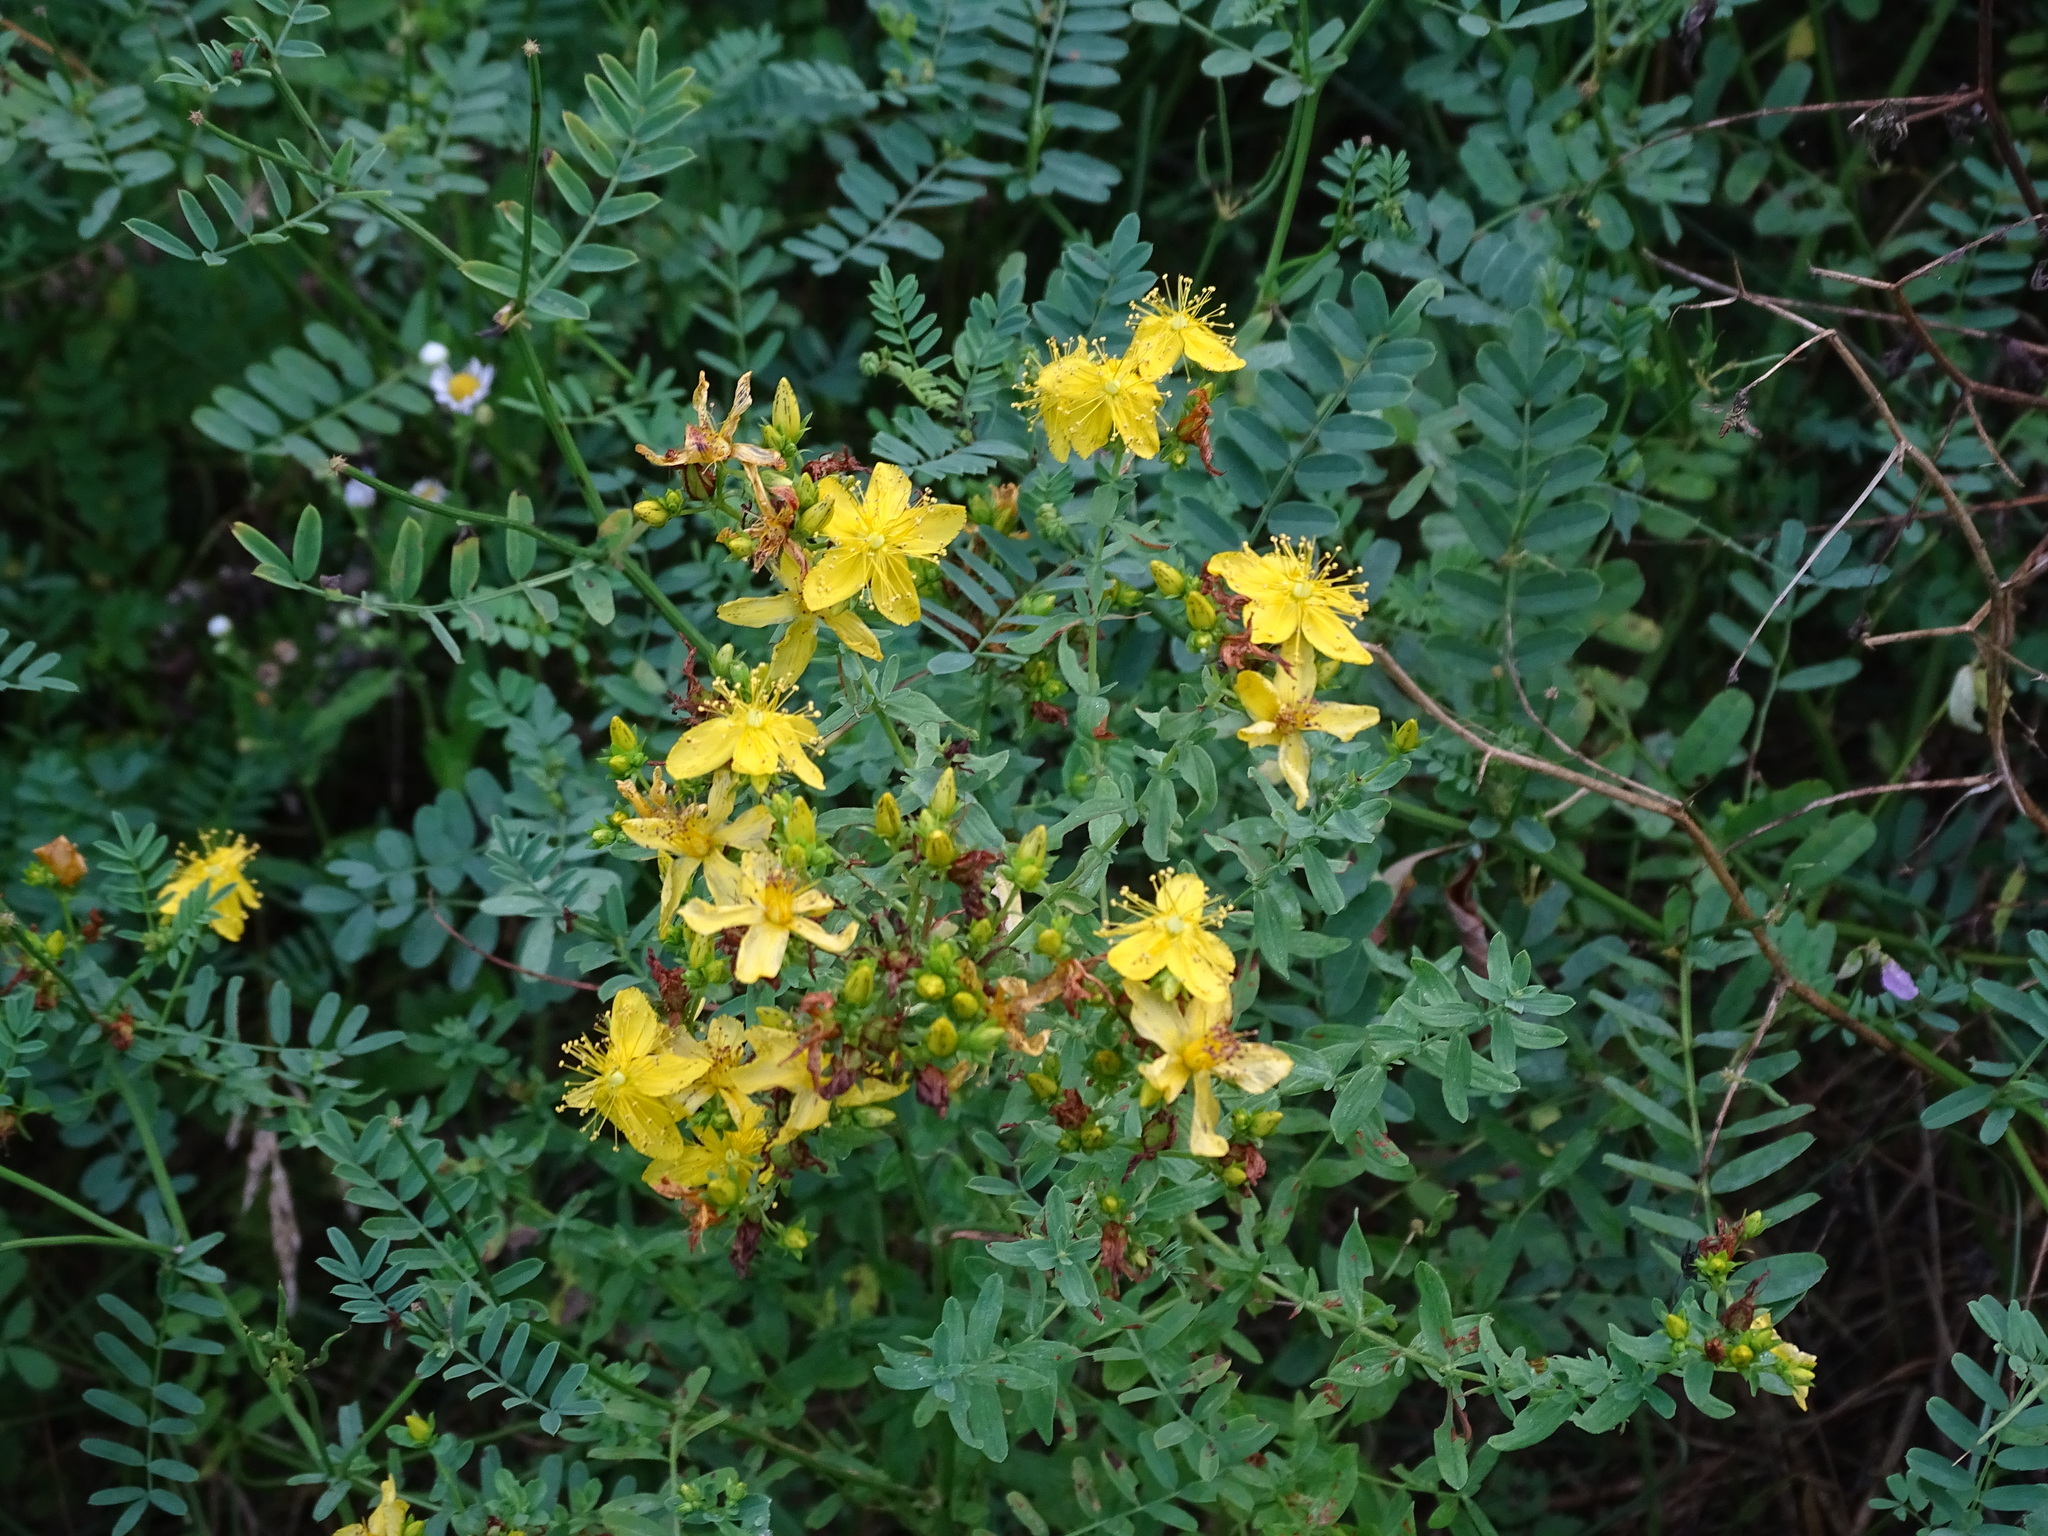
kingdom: Plantae
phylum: Tracheophyta
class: Magnoliopsida
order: Malpighiales
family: Hypericaceae
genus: Hypericum
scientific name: Hypericum perforatum
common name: Common st. johnswort
